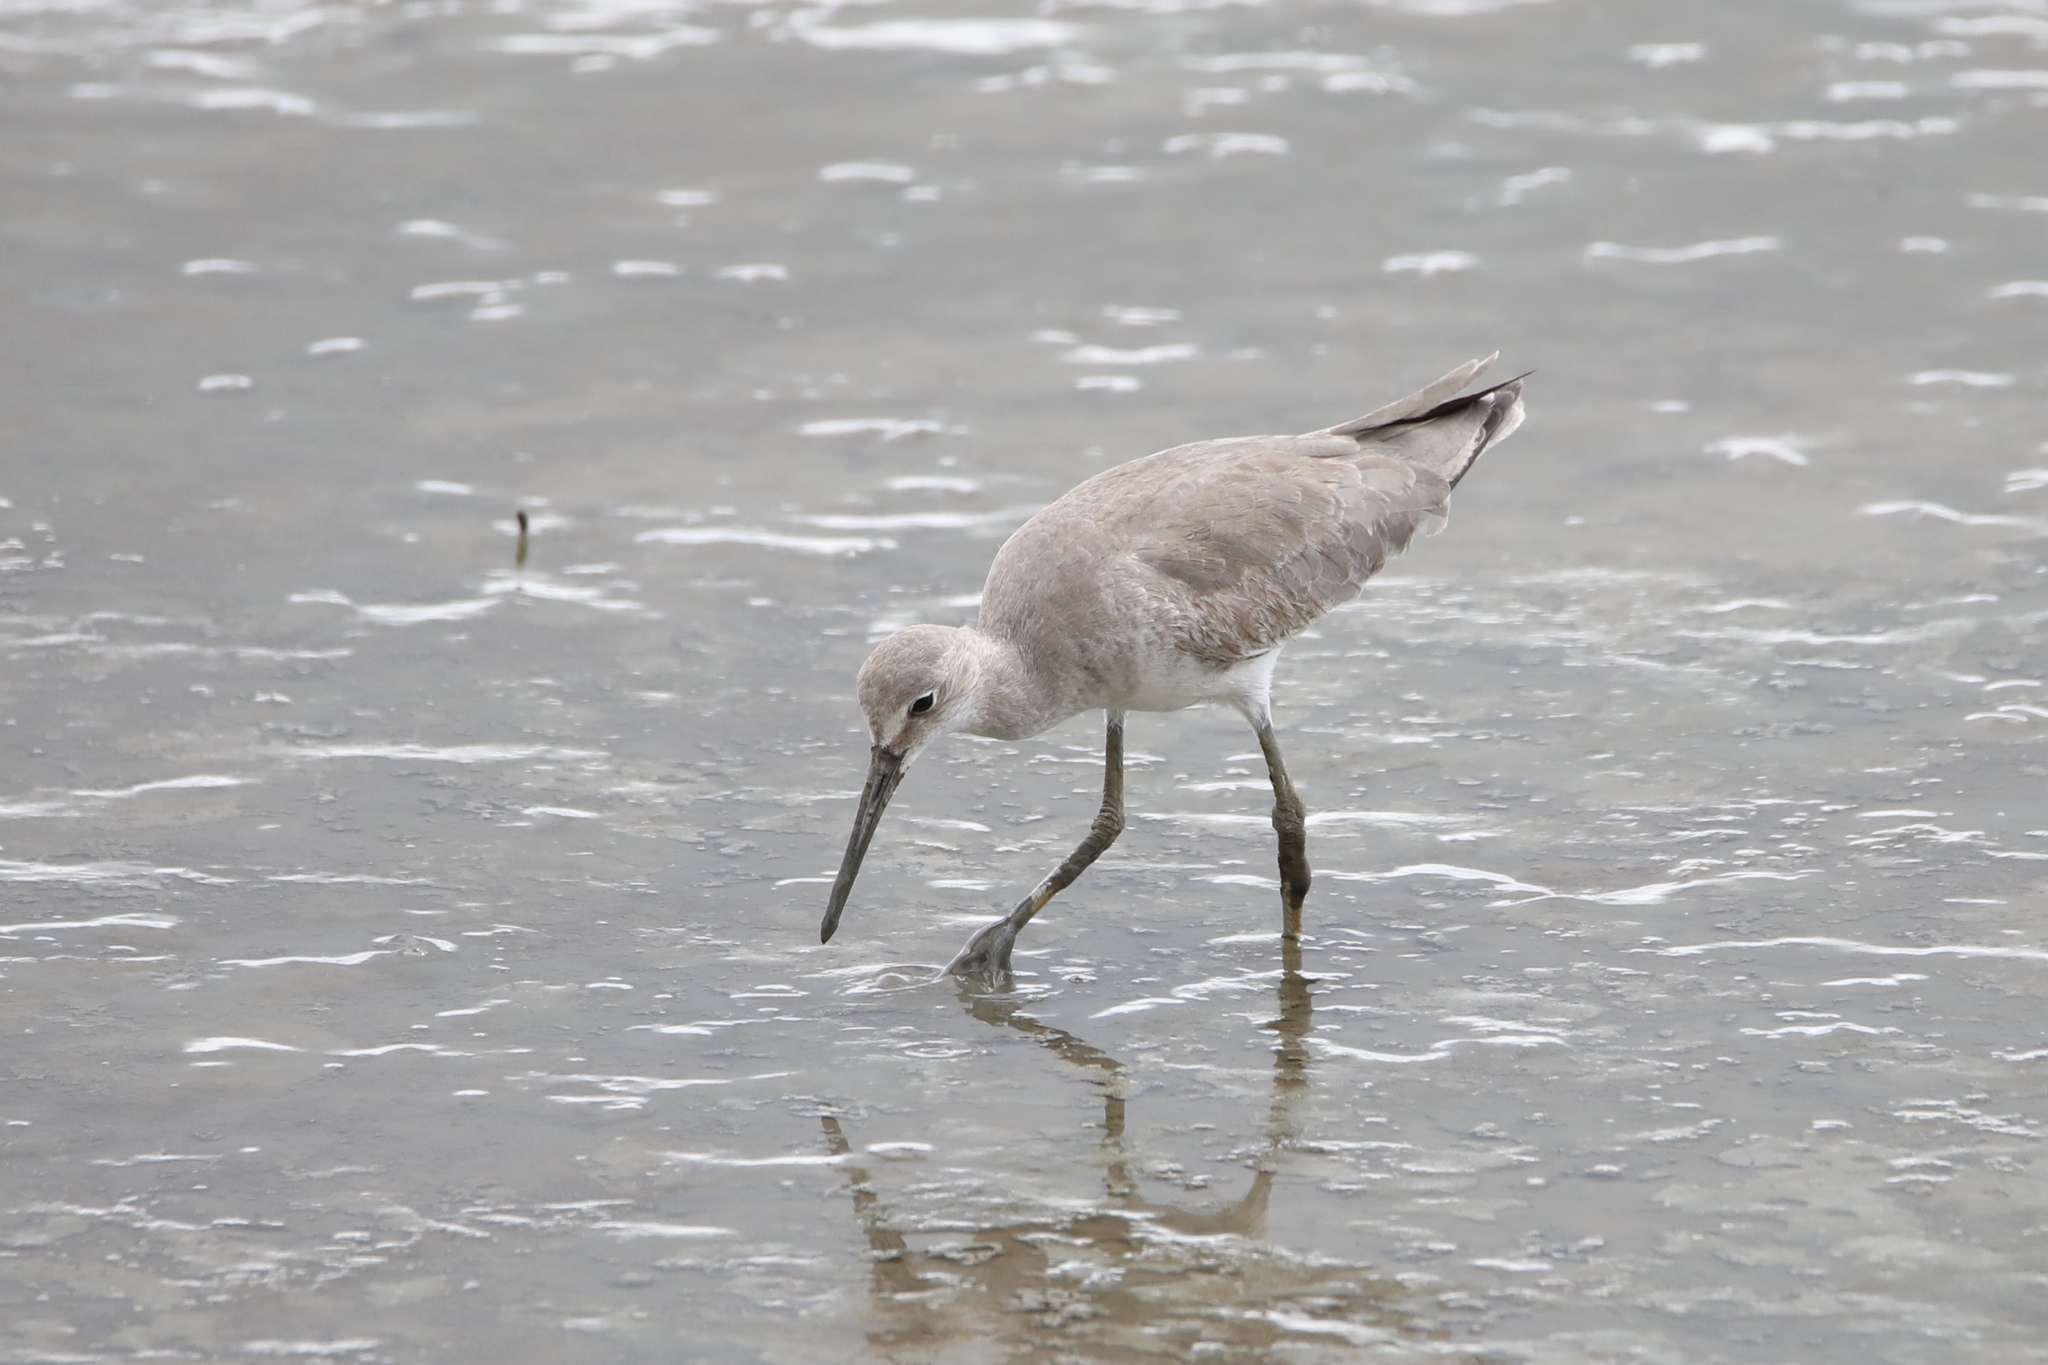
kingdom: Animalia
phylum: Chordata
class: Aves
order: Charadriiformes
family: Scolopacidae
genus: Tringa
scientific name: Tringa semipalmata
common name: Willet
